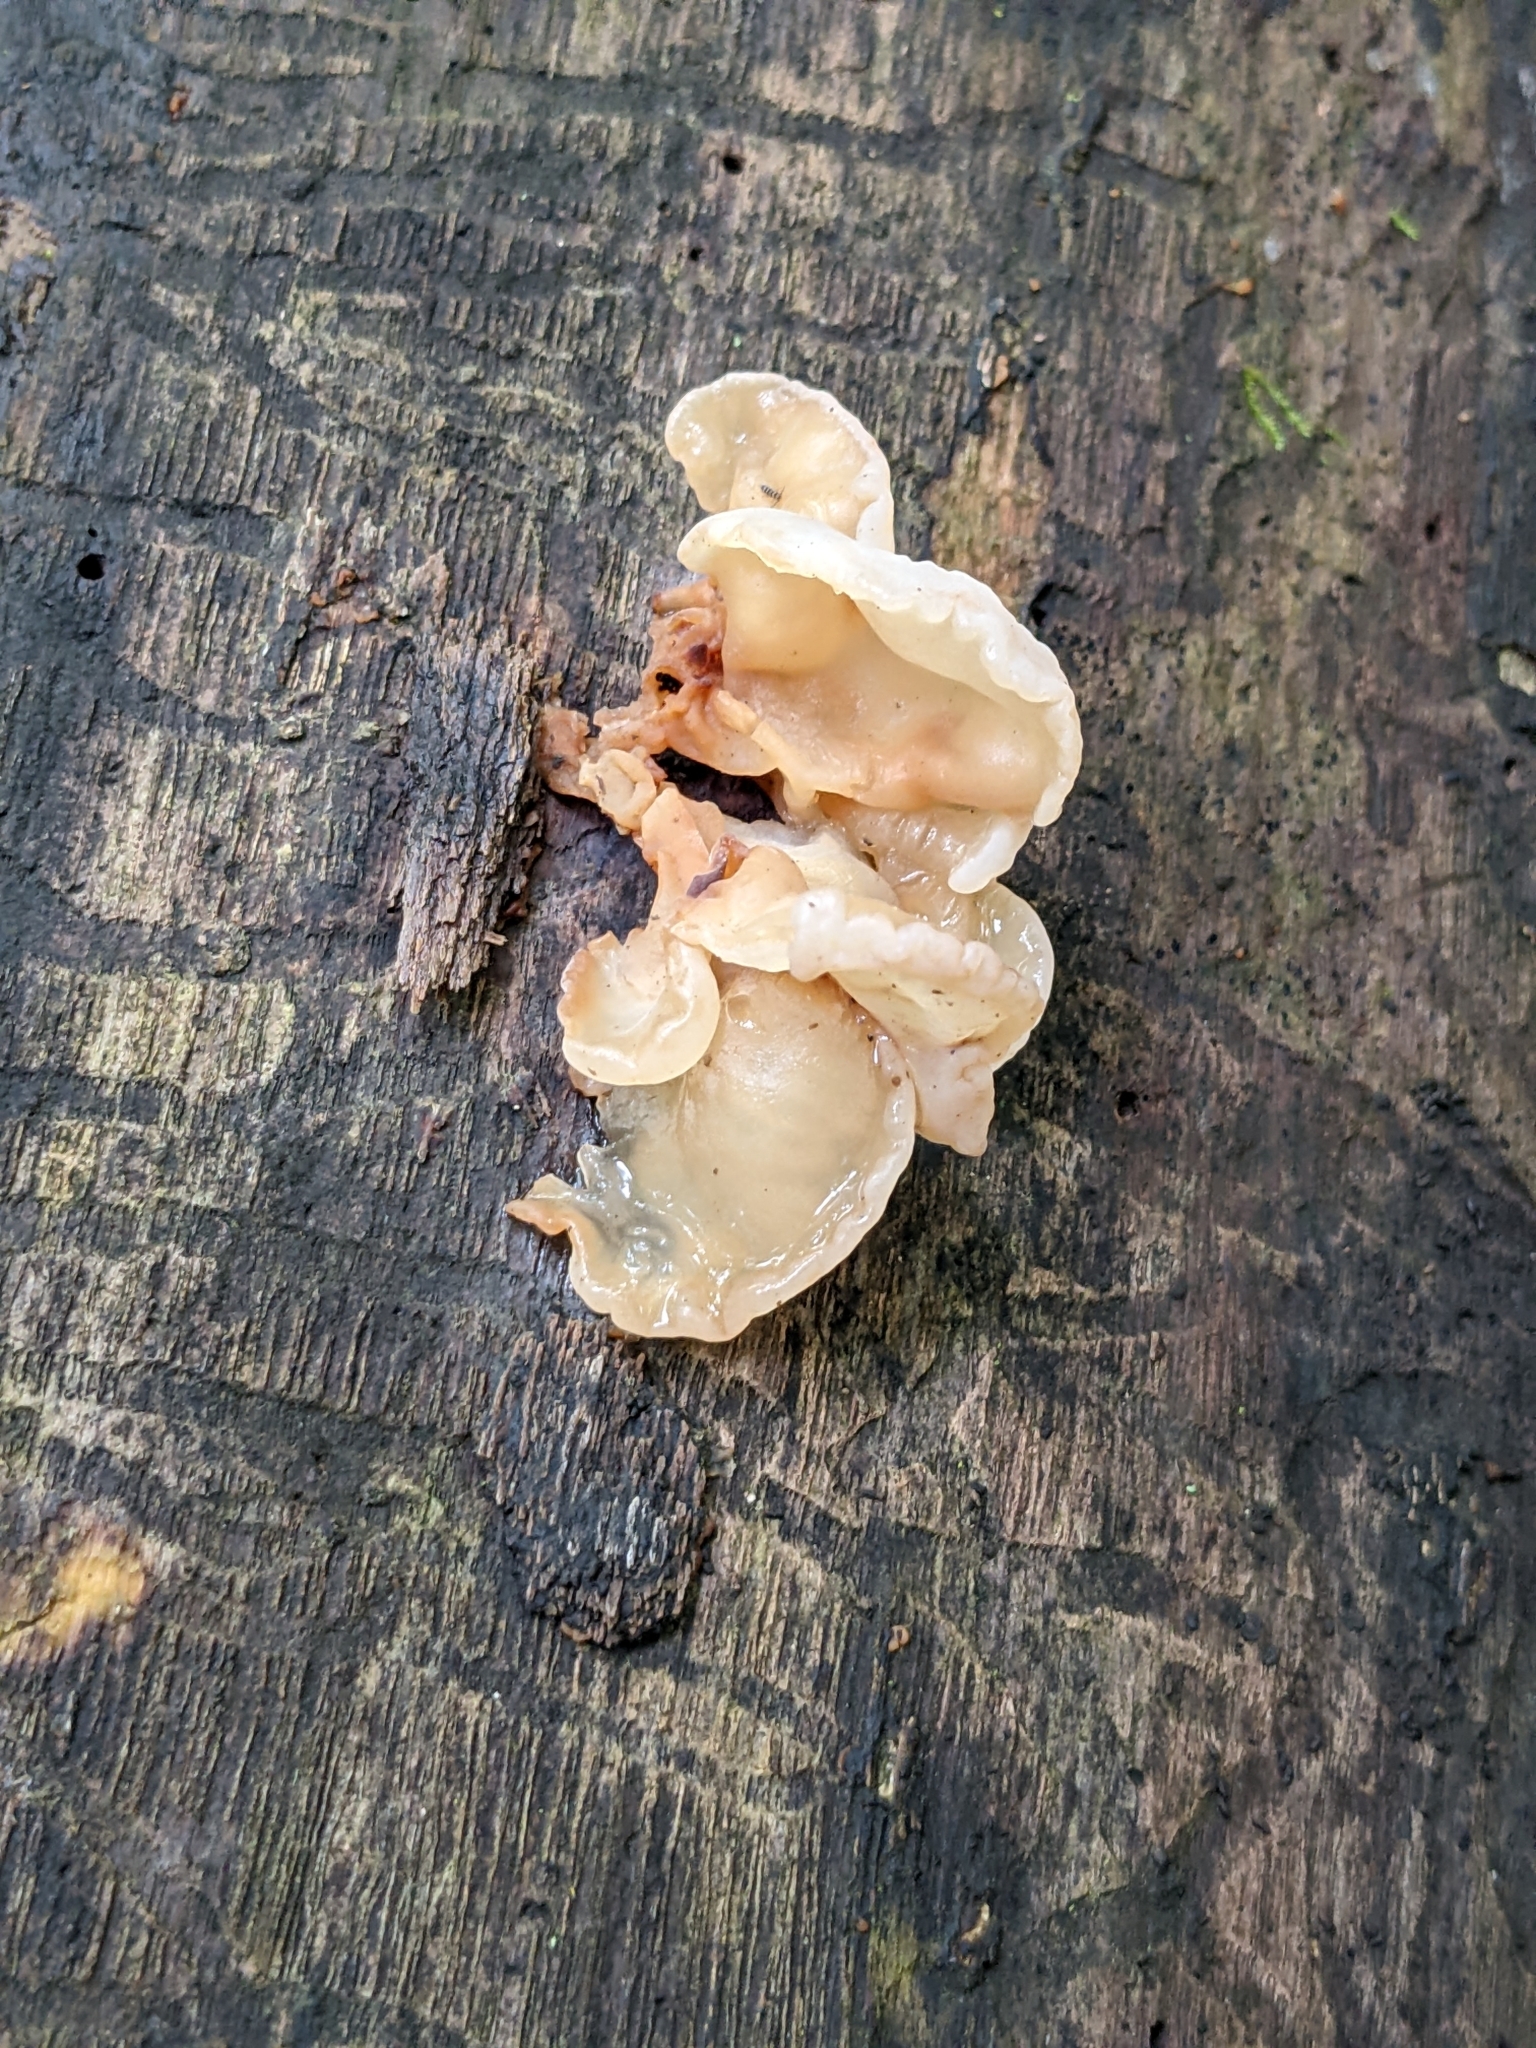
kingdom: Fungi
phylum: Basidiomycota
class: Agaricomycetes
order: Auriculariales
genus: Ductifera
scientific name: Ductifera pululahuana
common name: White jelly fungus
